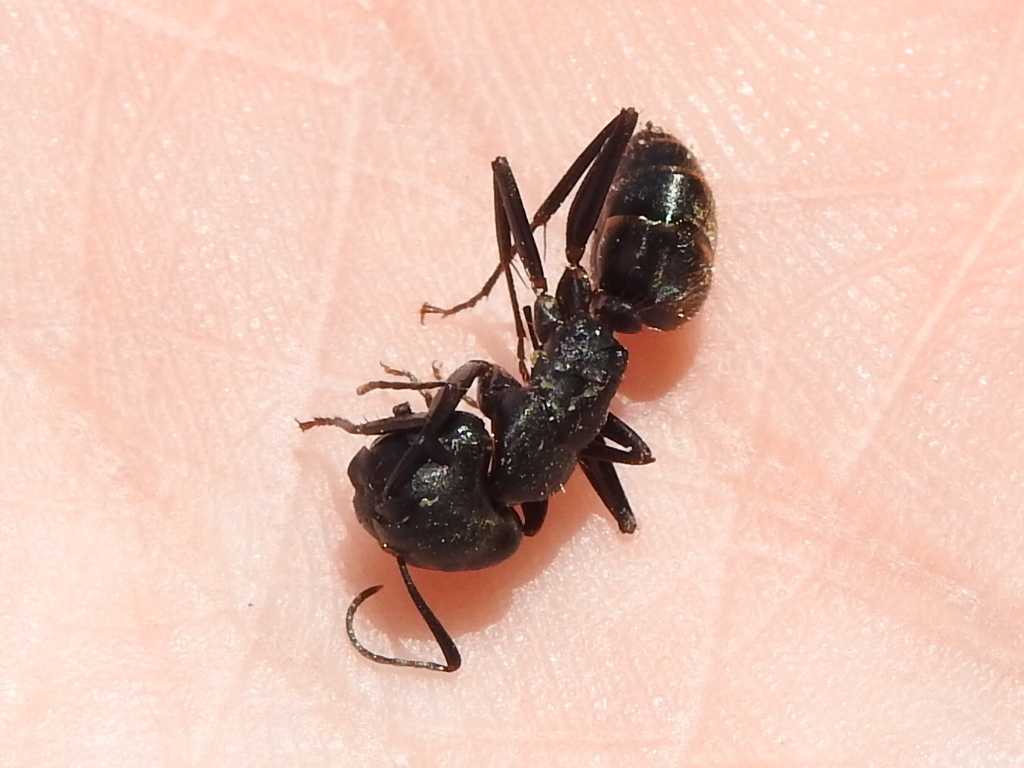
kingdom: Animalia
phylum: Arthropoda
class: Insecta
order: Hymenoptera
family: Formicidae
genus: Camponotus
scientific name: Camponotus pennsylvanicus
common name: Black carpenter ant
